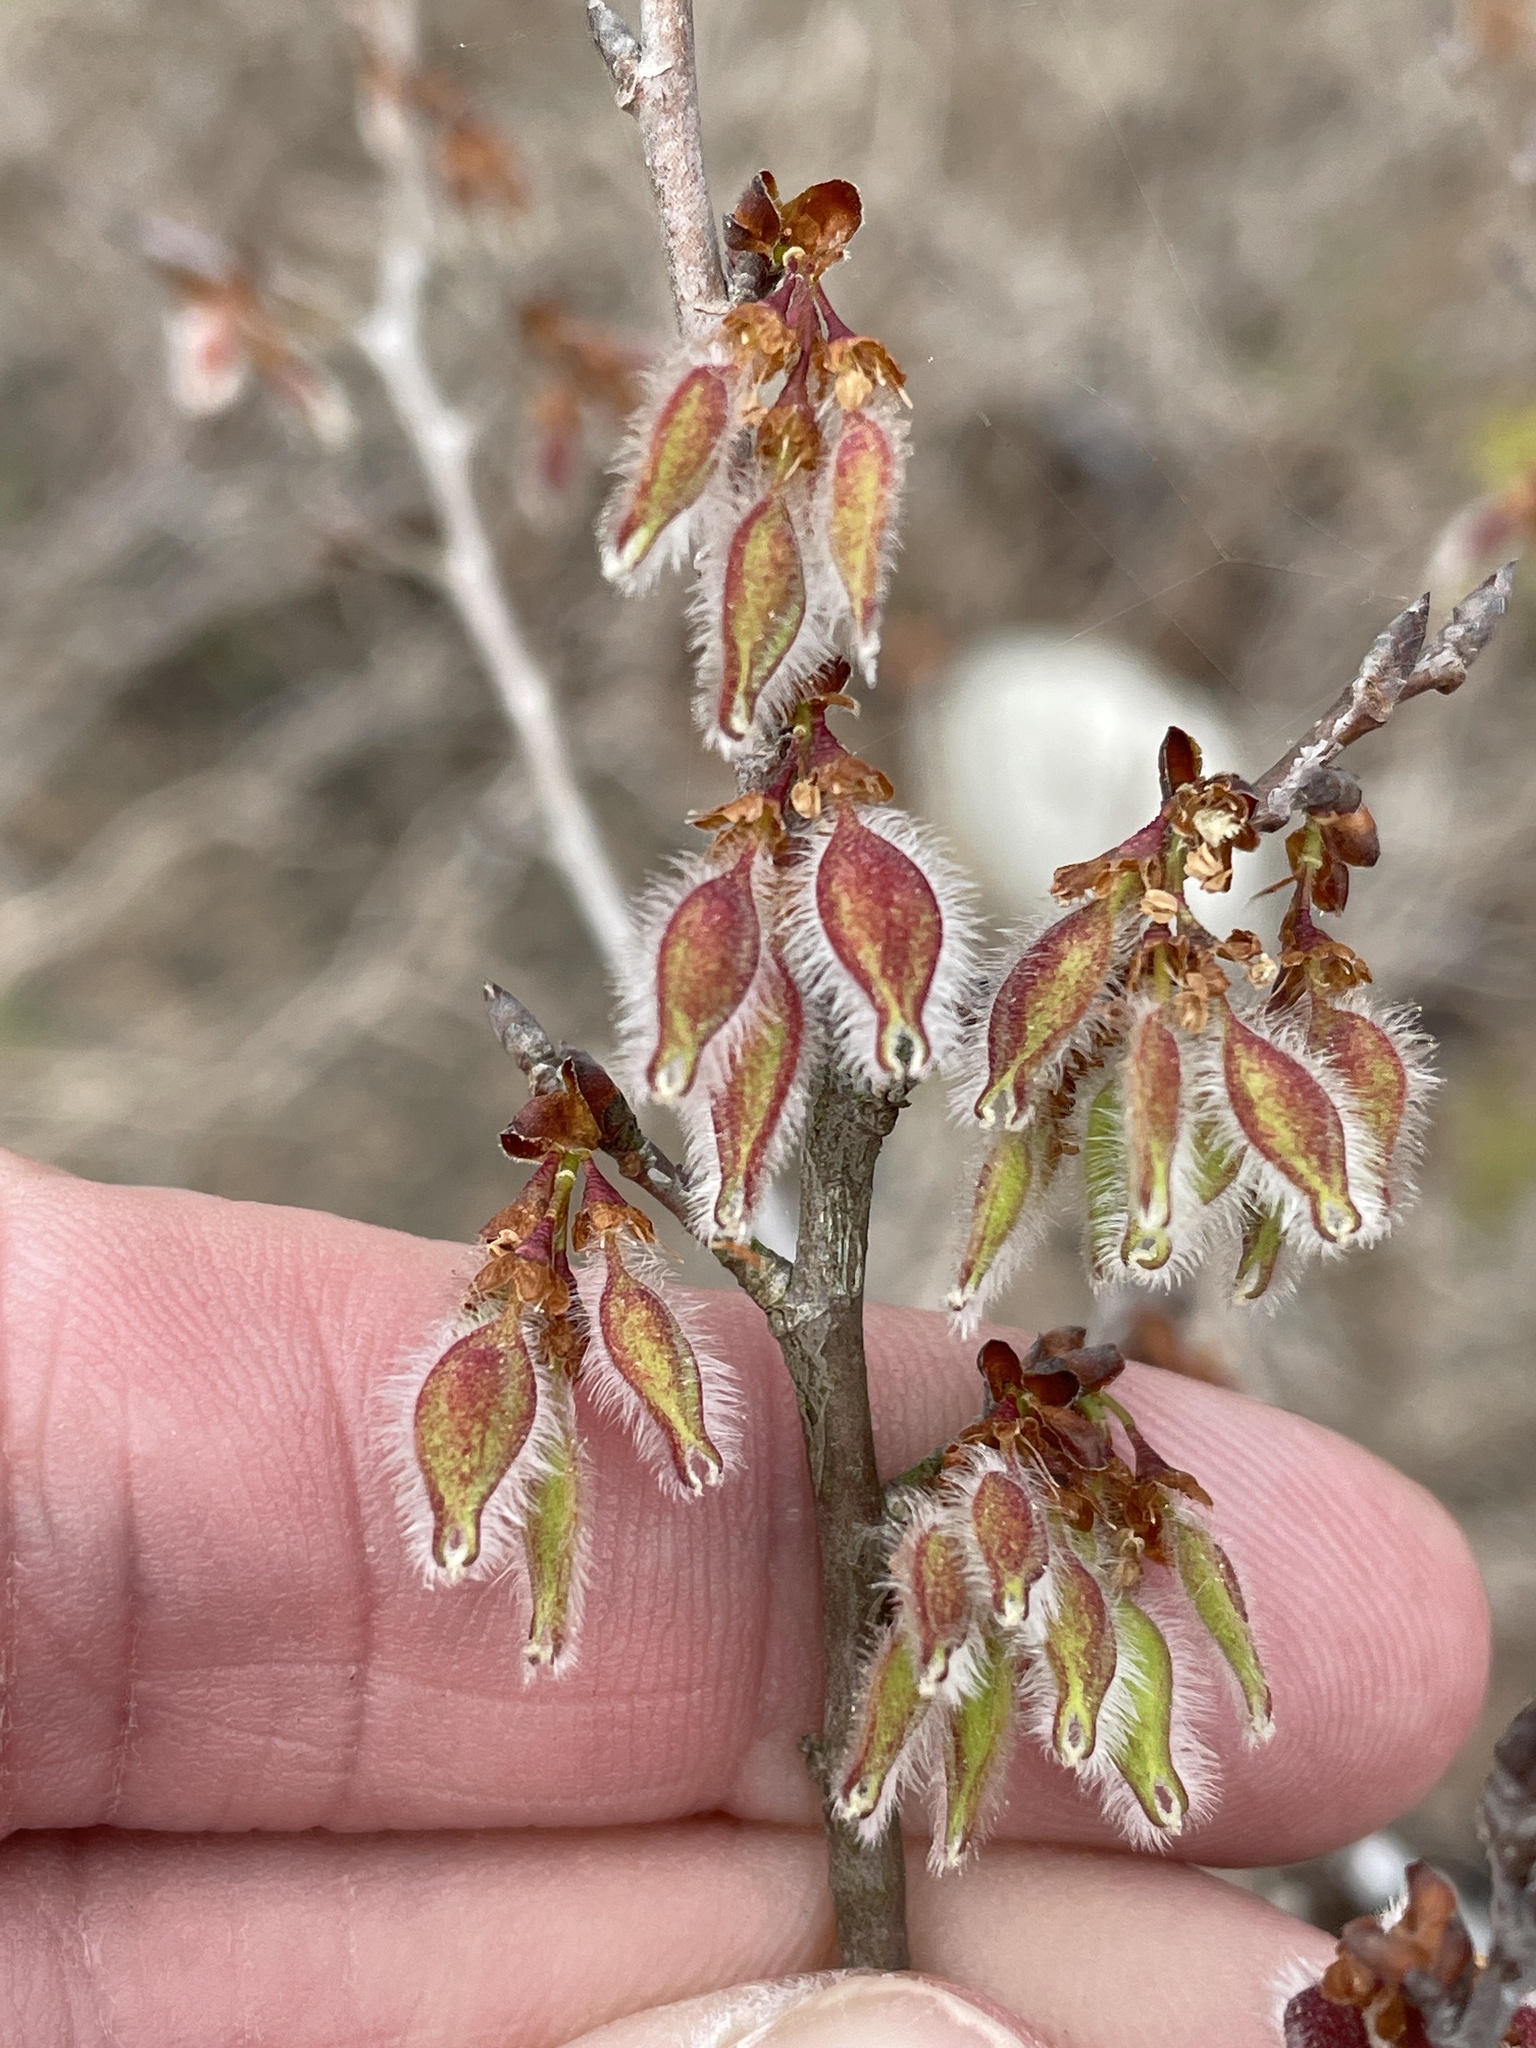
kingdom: Plantae
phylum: Tracheophyta
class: Magnoliopsida
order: Rosales
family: Ulmaceae
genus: Ulmus
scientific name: Ulmus alata
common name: Winged elm
